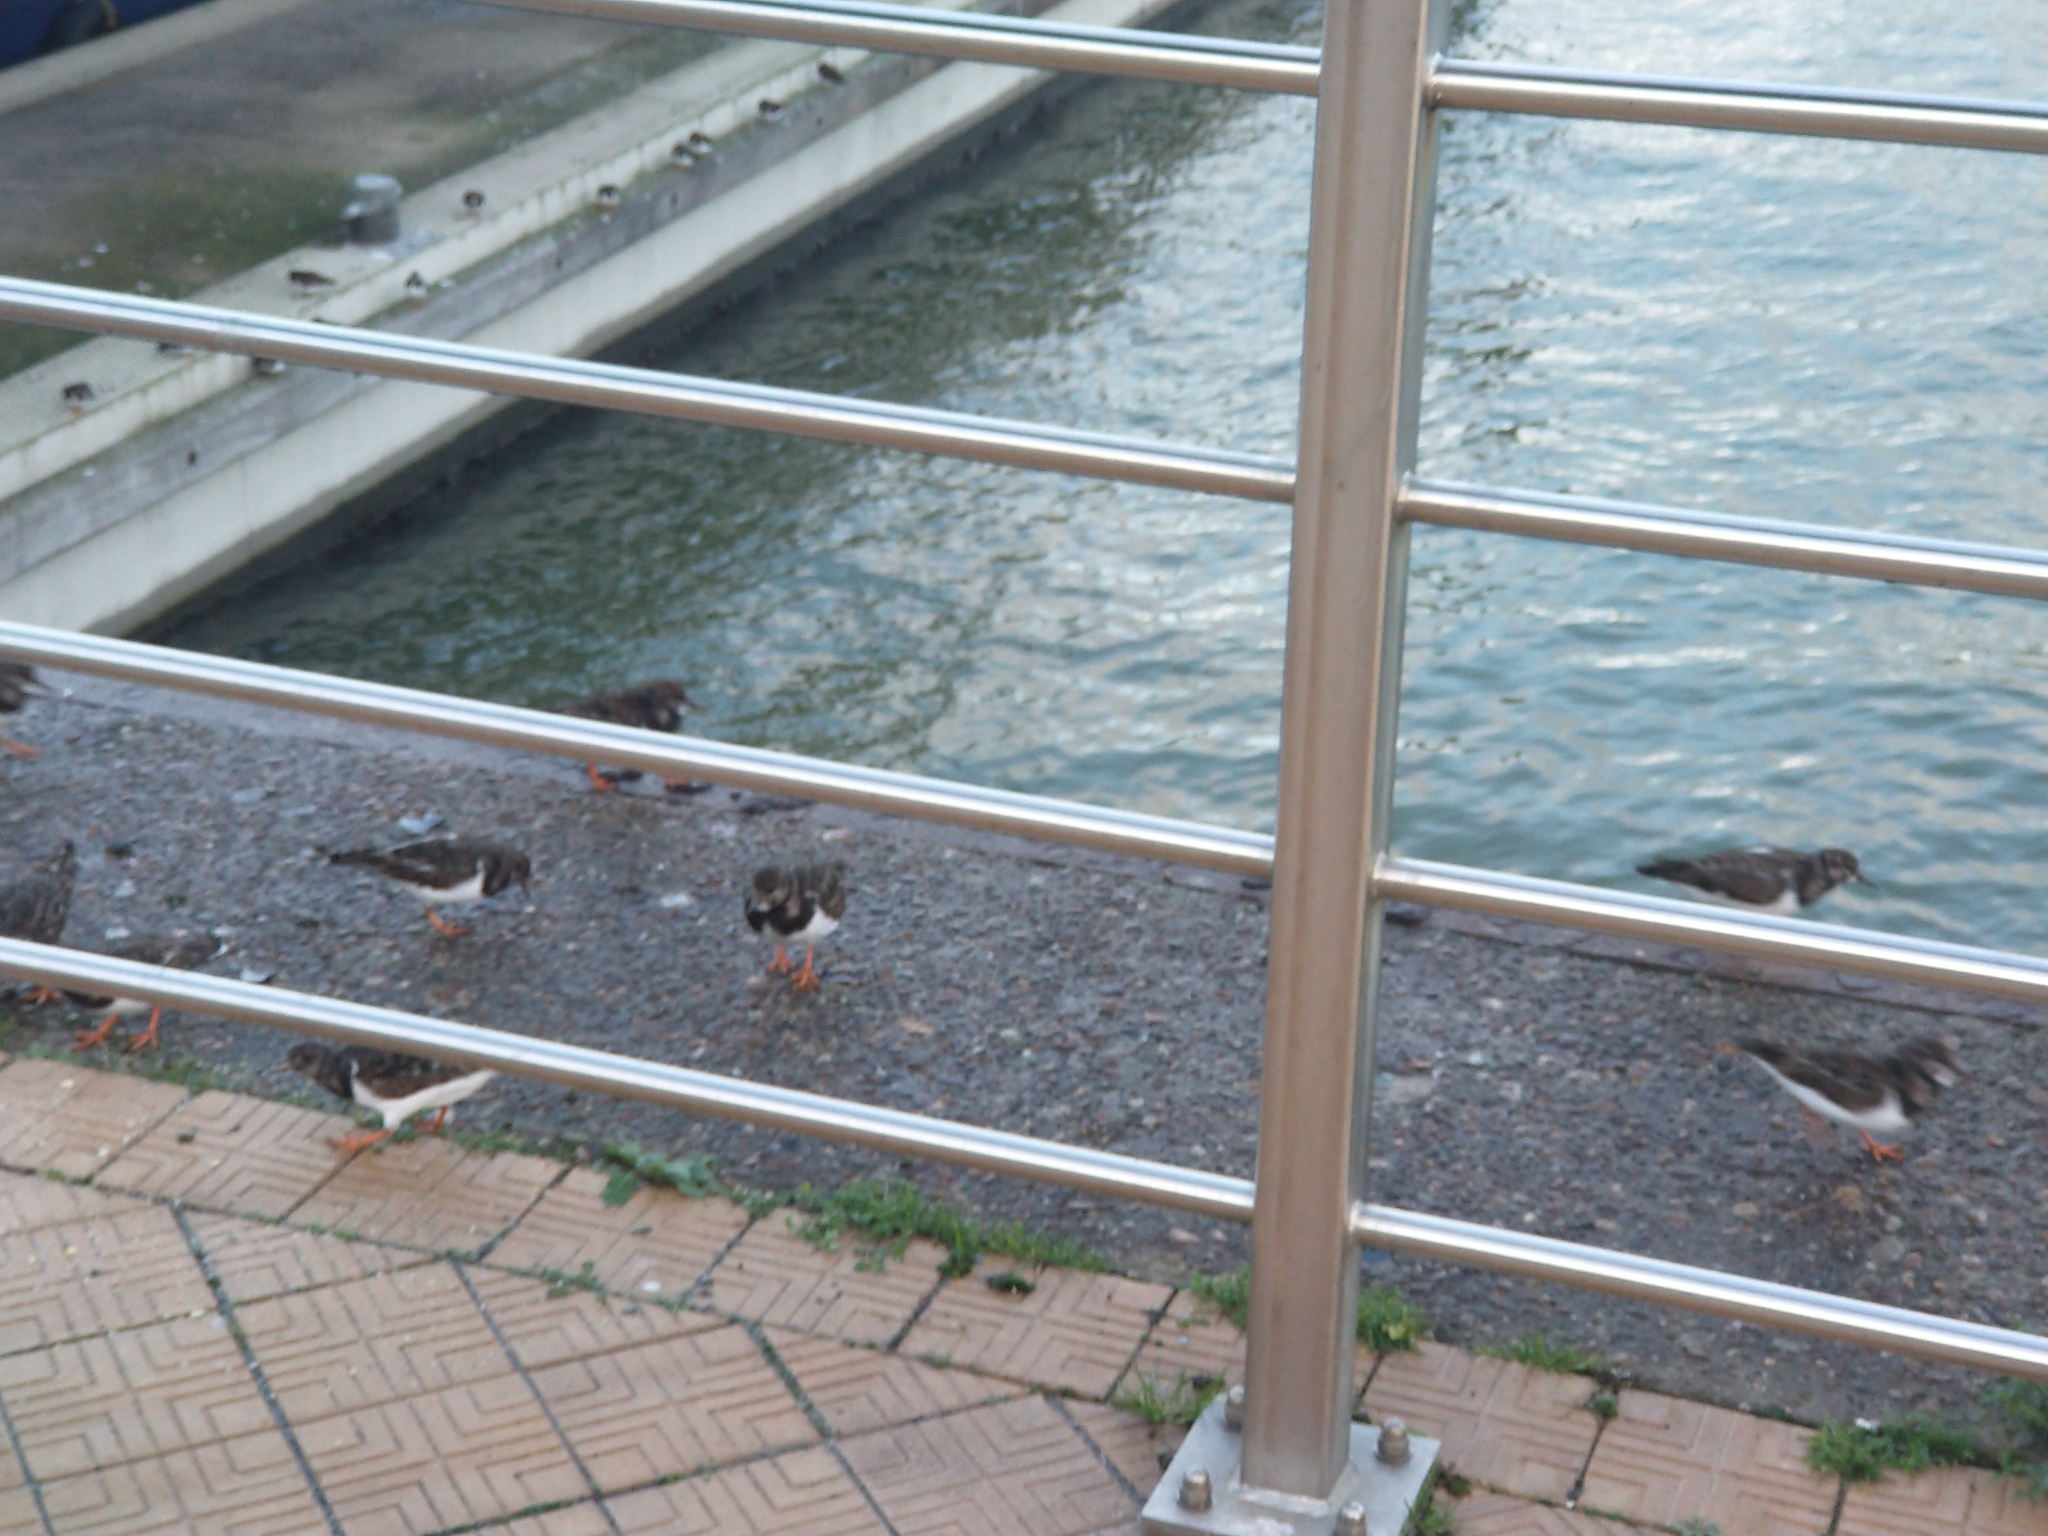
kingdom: Animalia
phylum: Chordata
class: Aves
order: Charadriiformes
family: Scolopacidae
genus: Arenaria
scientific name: Arenaria interpres
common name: Ruddy turnstone
